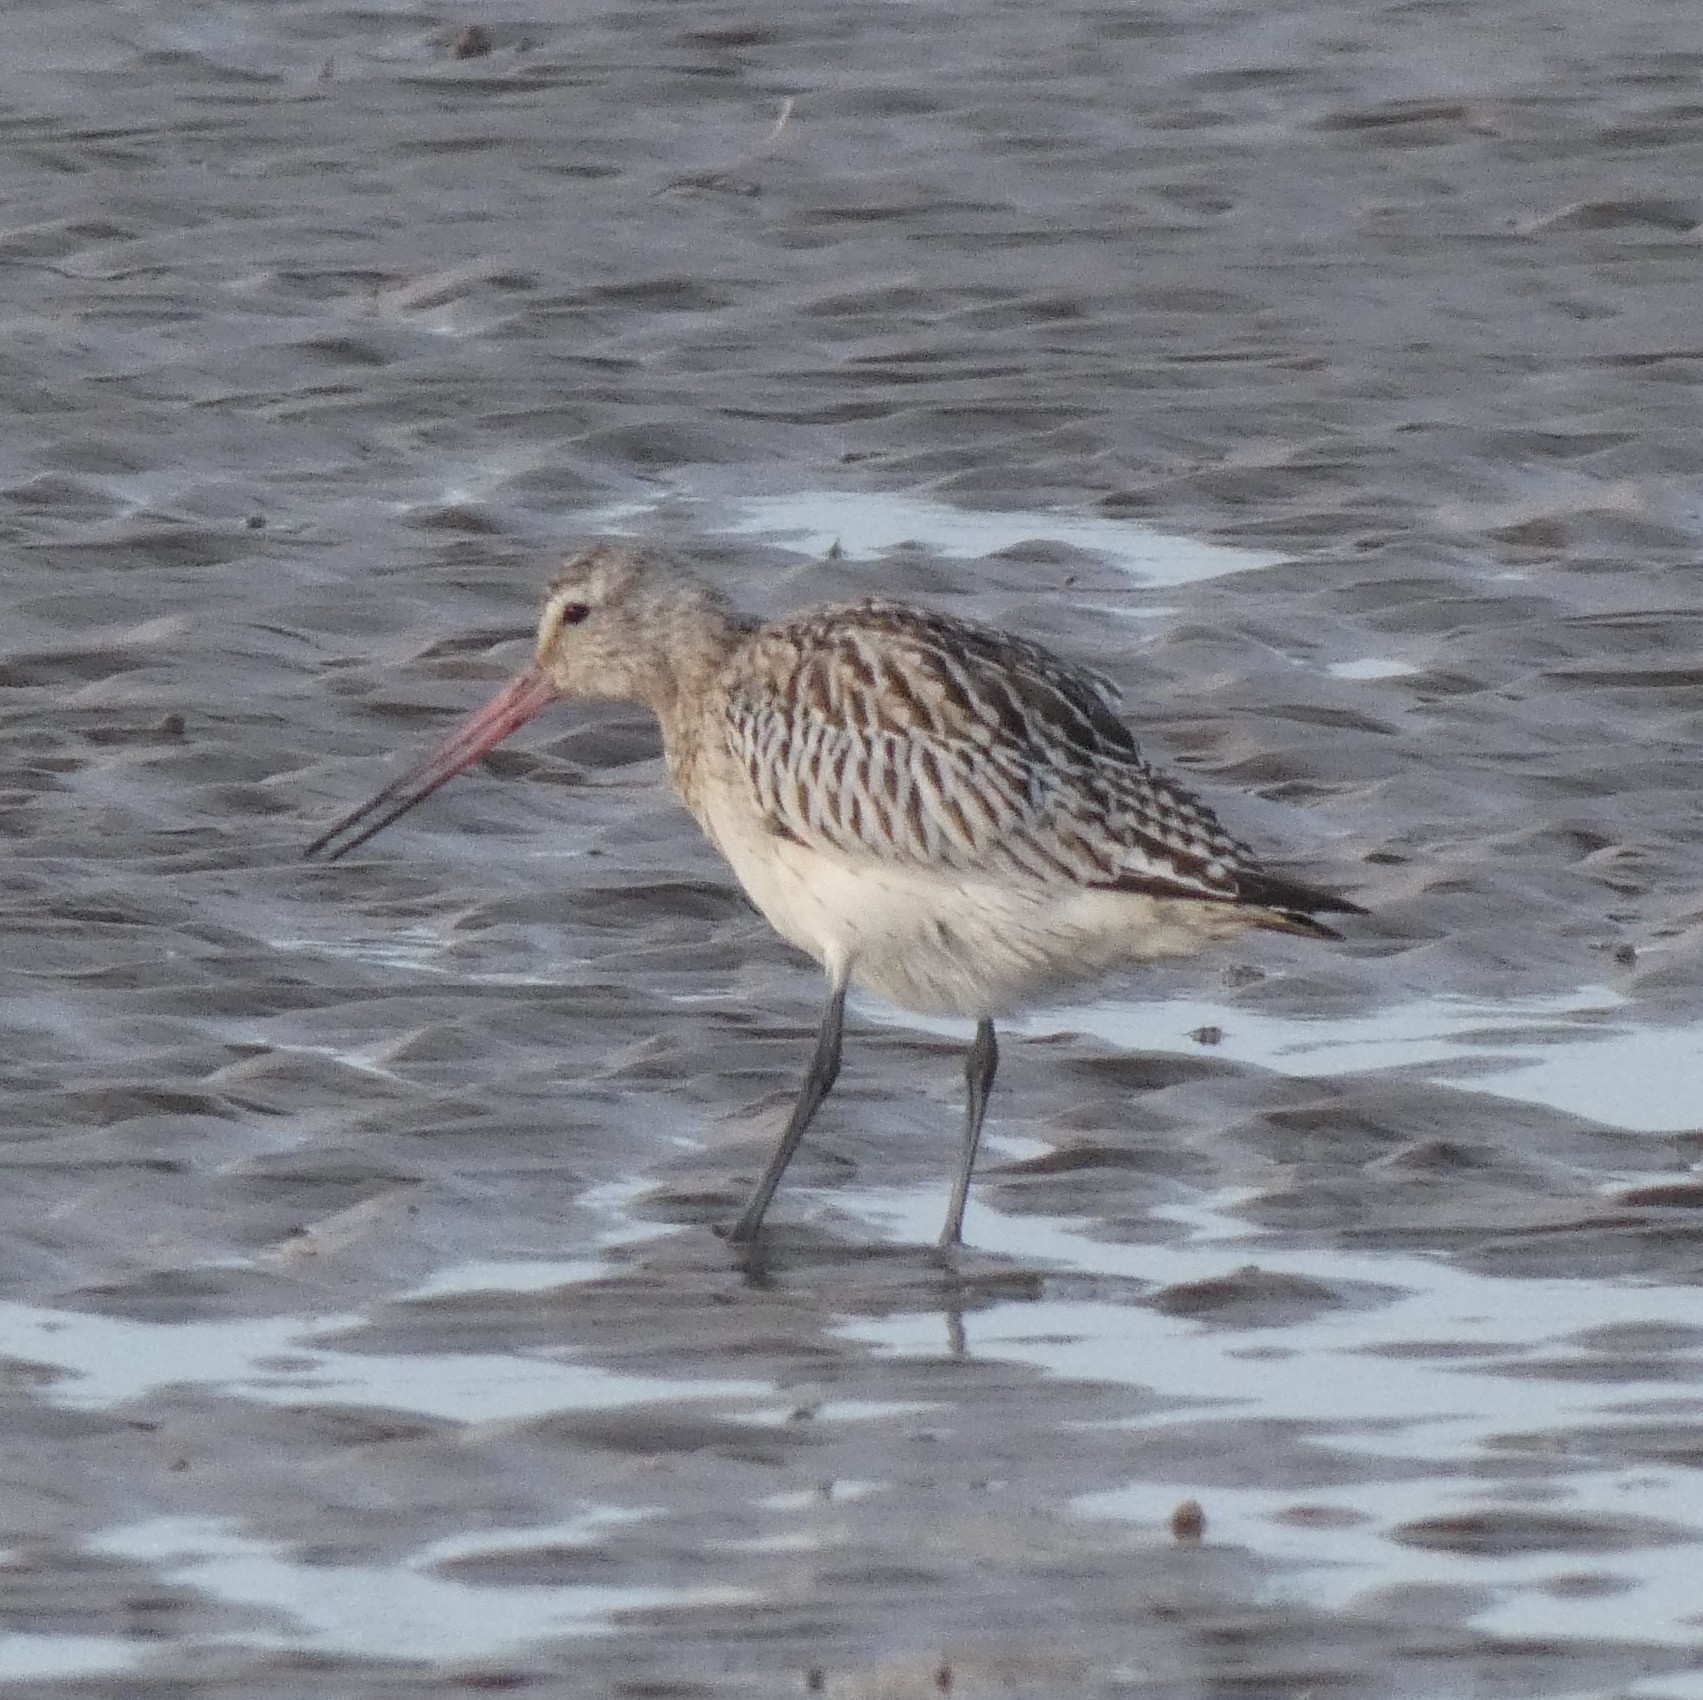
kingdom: Animalia
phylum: Chordata
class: Aves
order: Charadriiformes
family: Scolopacidae
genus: Limosa
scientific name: Limosa lapponica
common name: Bar-tailed godwit
